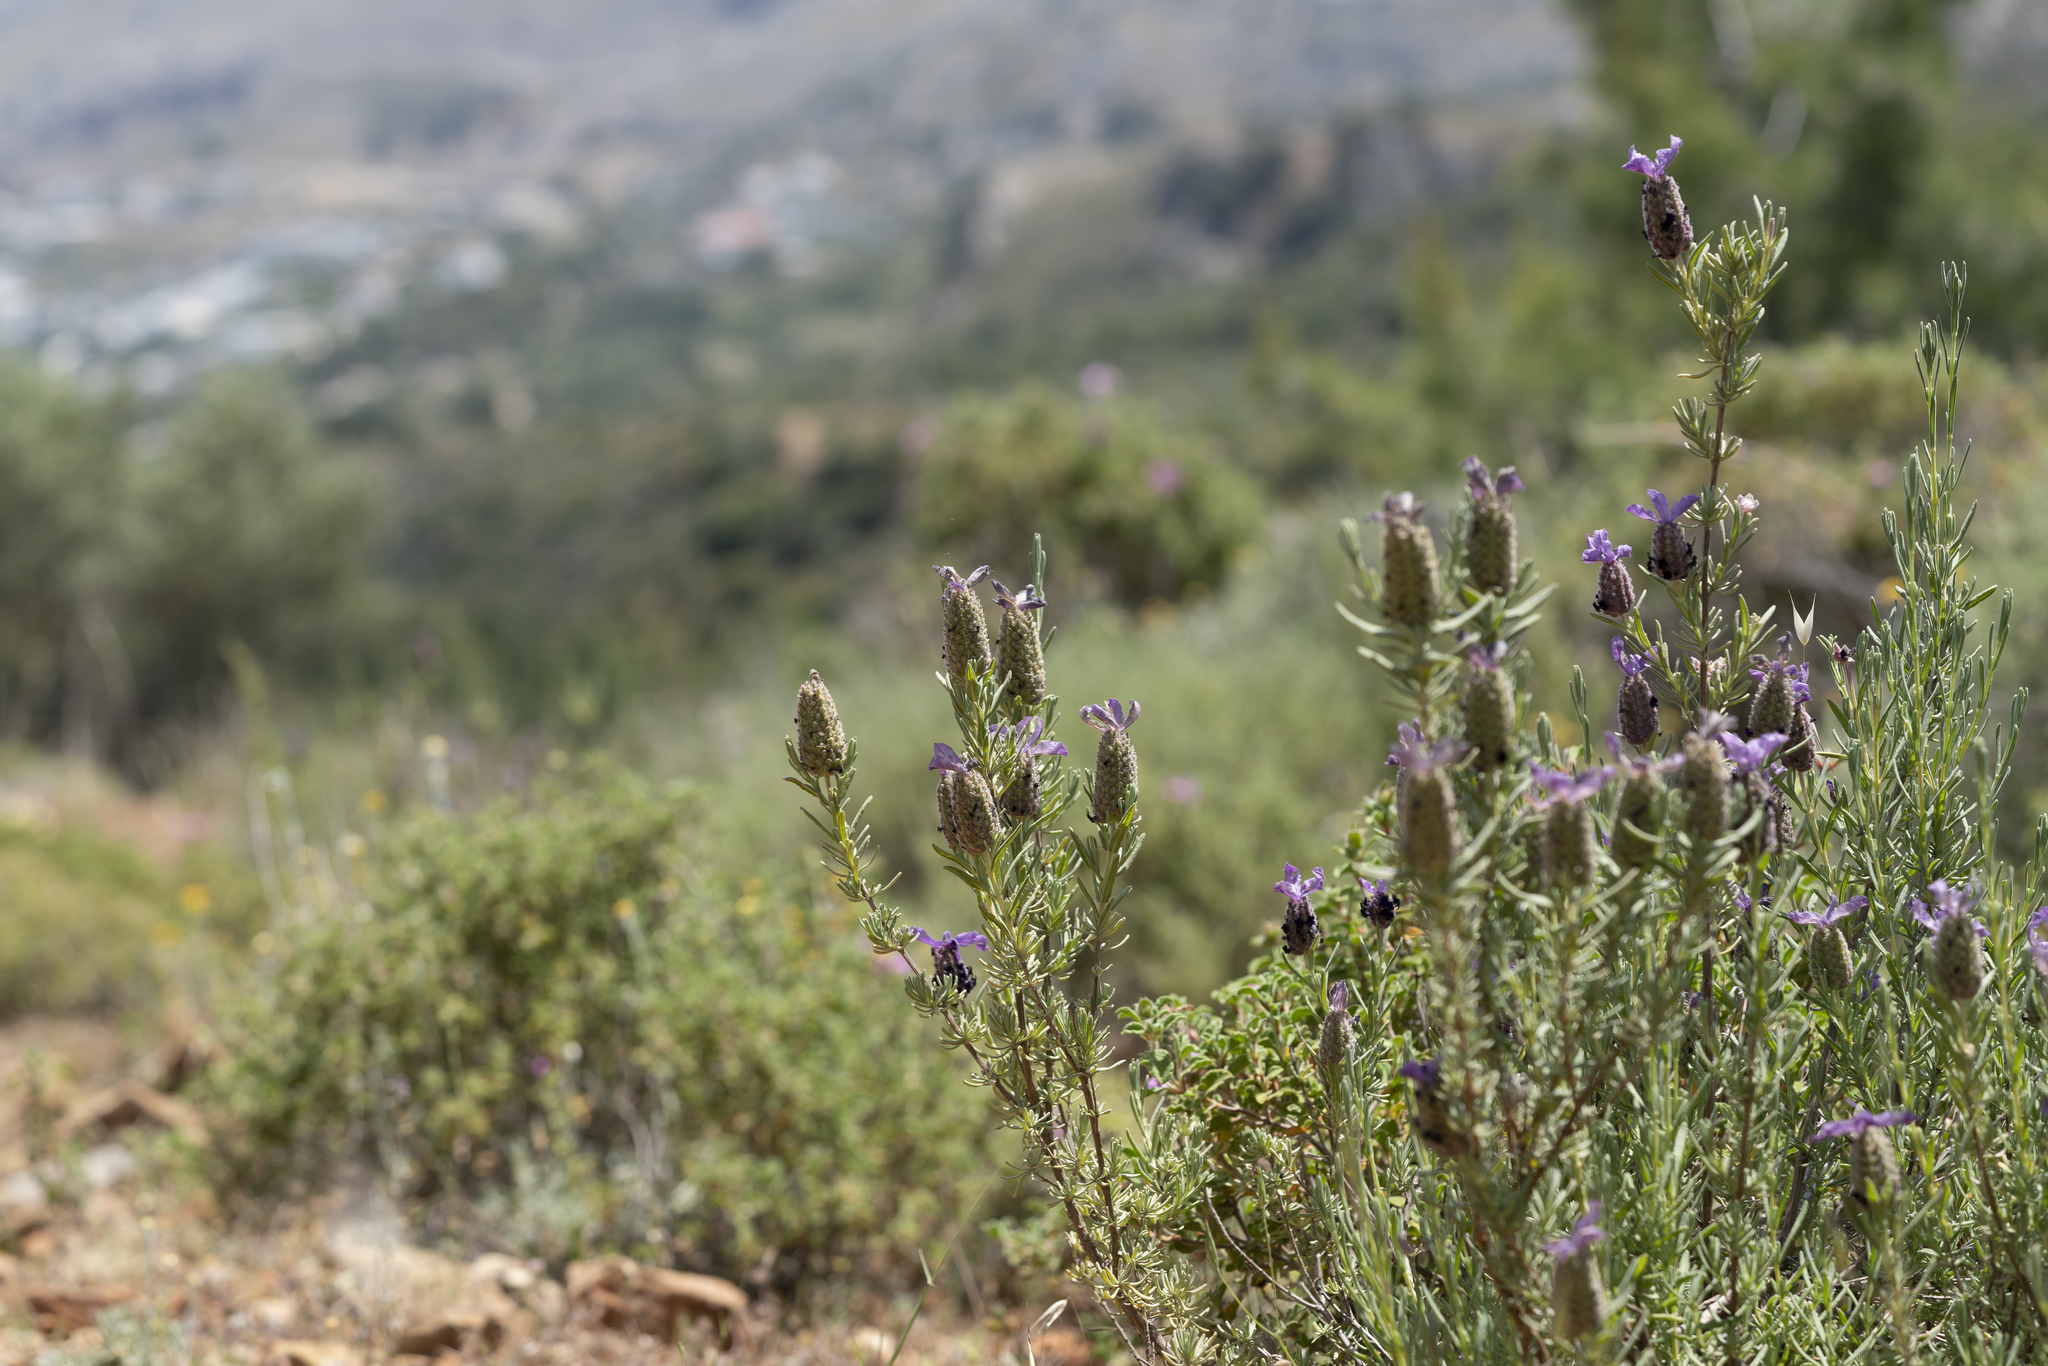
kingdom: Plantae
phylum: Tracheophyta
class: Magnoliopsida
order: Lamiales
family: Lamiaceae
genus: Lavandula
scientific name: Lavandula stoechas
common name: French lavender
